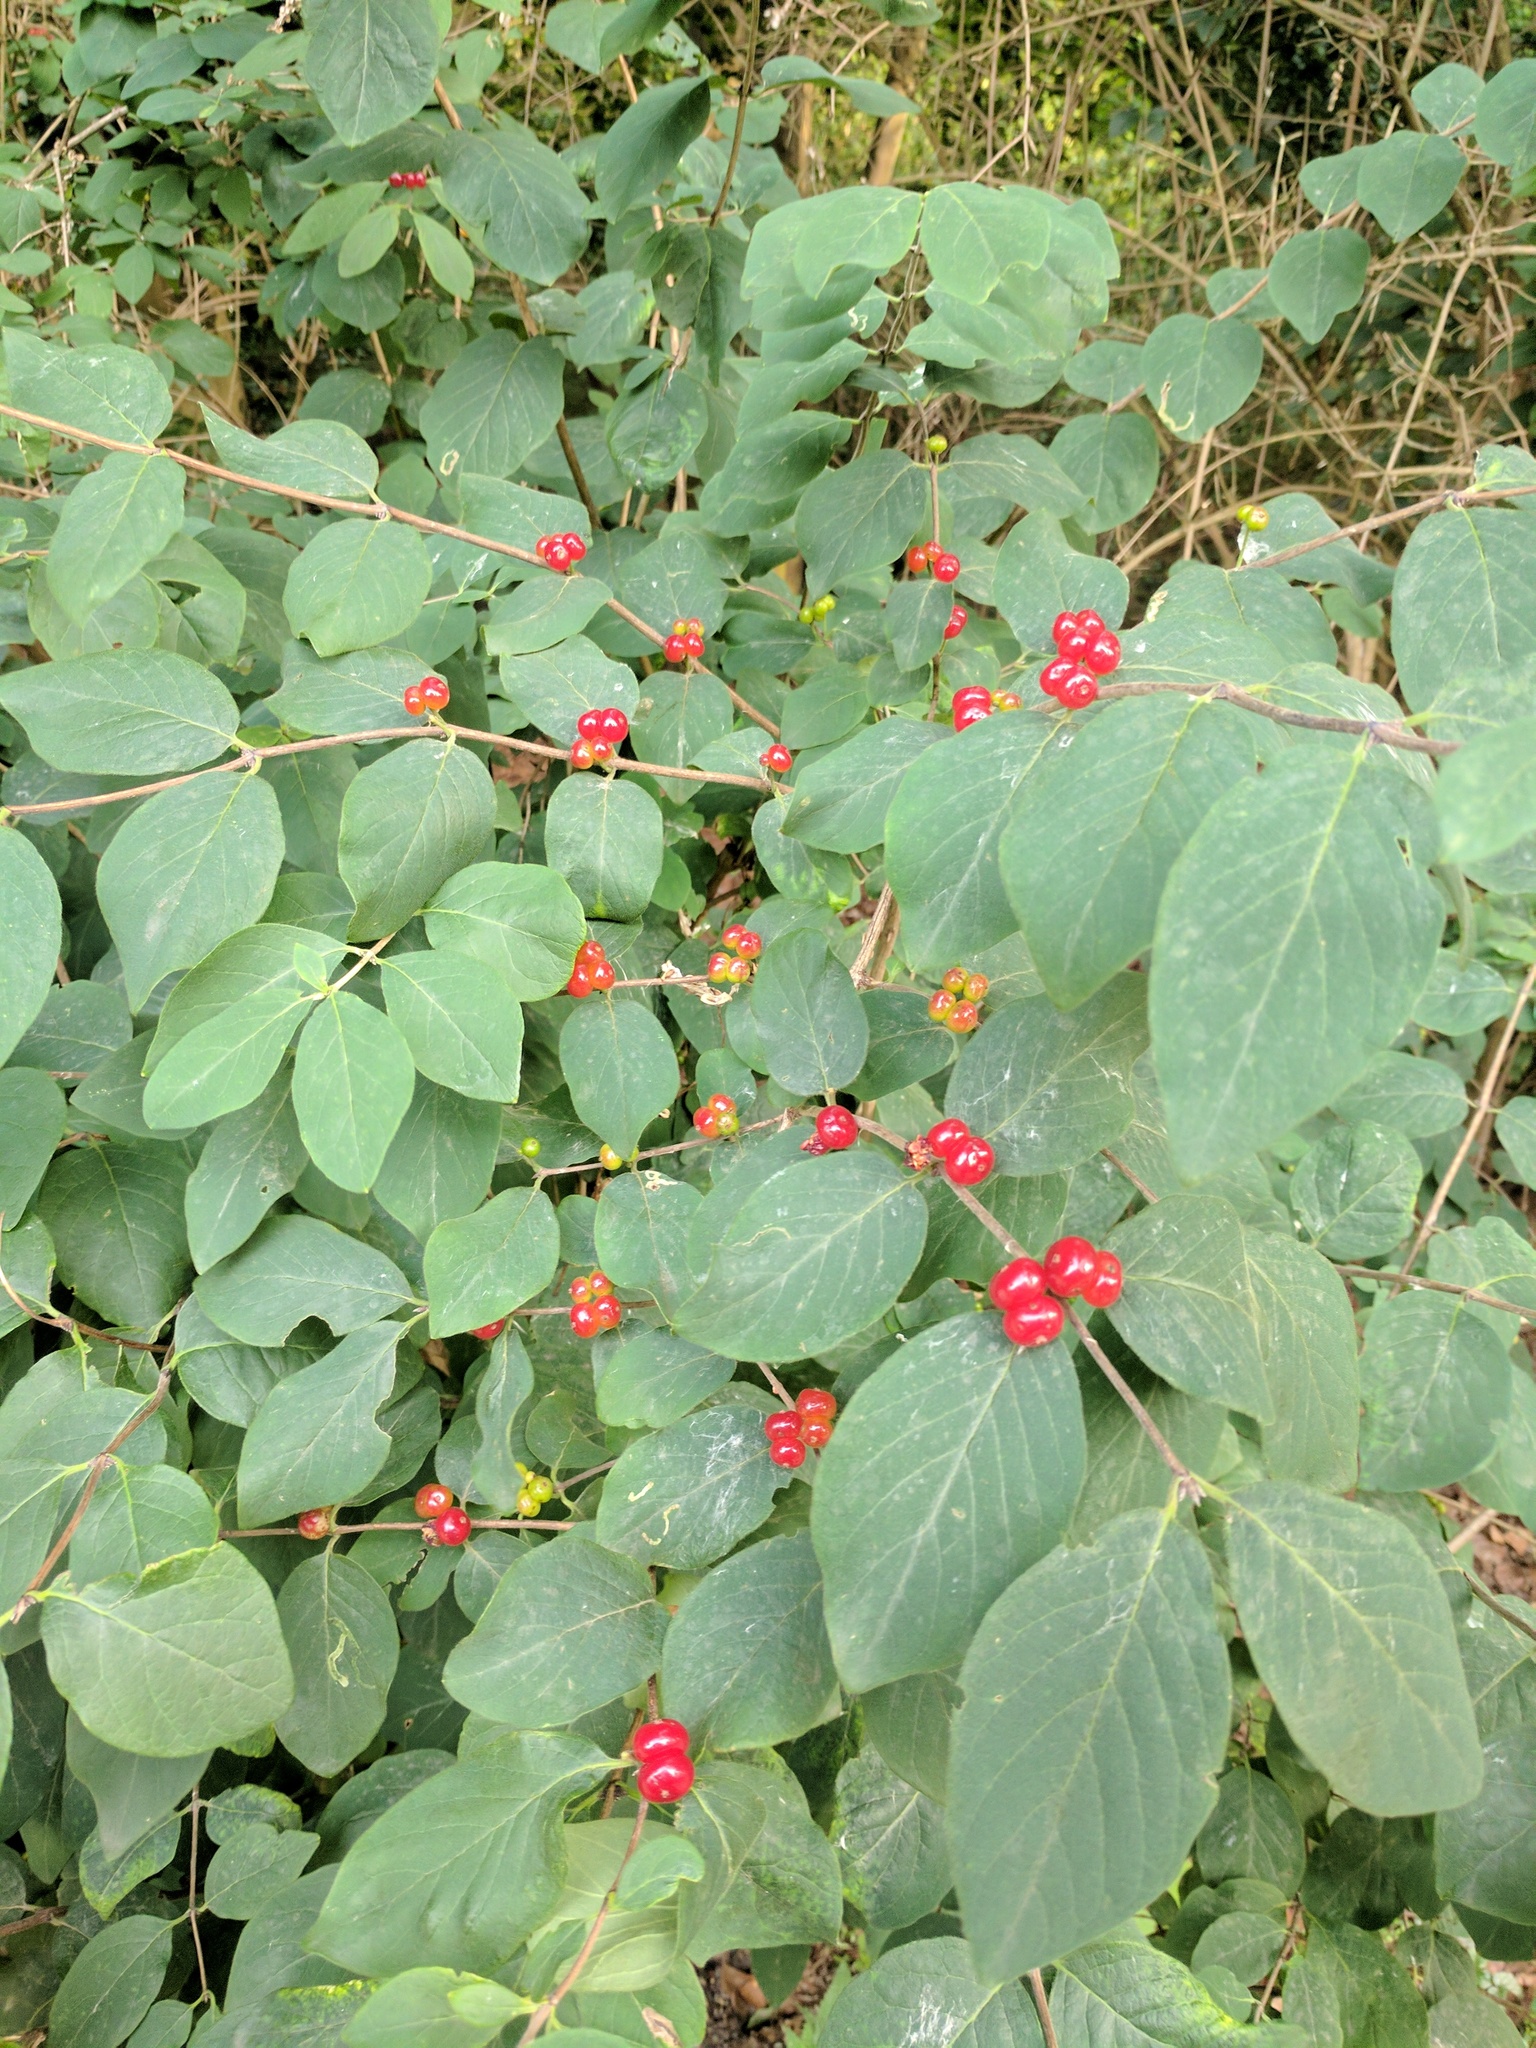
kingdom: Plantae
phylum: Tracheophyta
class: Magnoliopsida
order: Dipsacales
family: Caprifoliaceae
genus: Lonicera
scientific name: Lonicera xylosteum
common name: Fly honeysuckle
